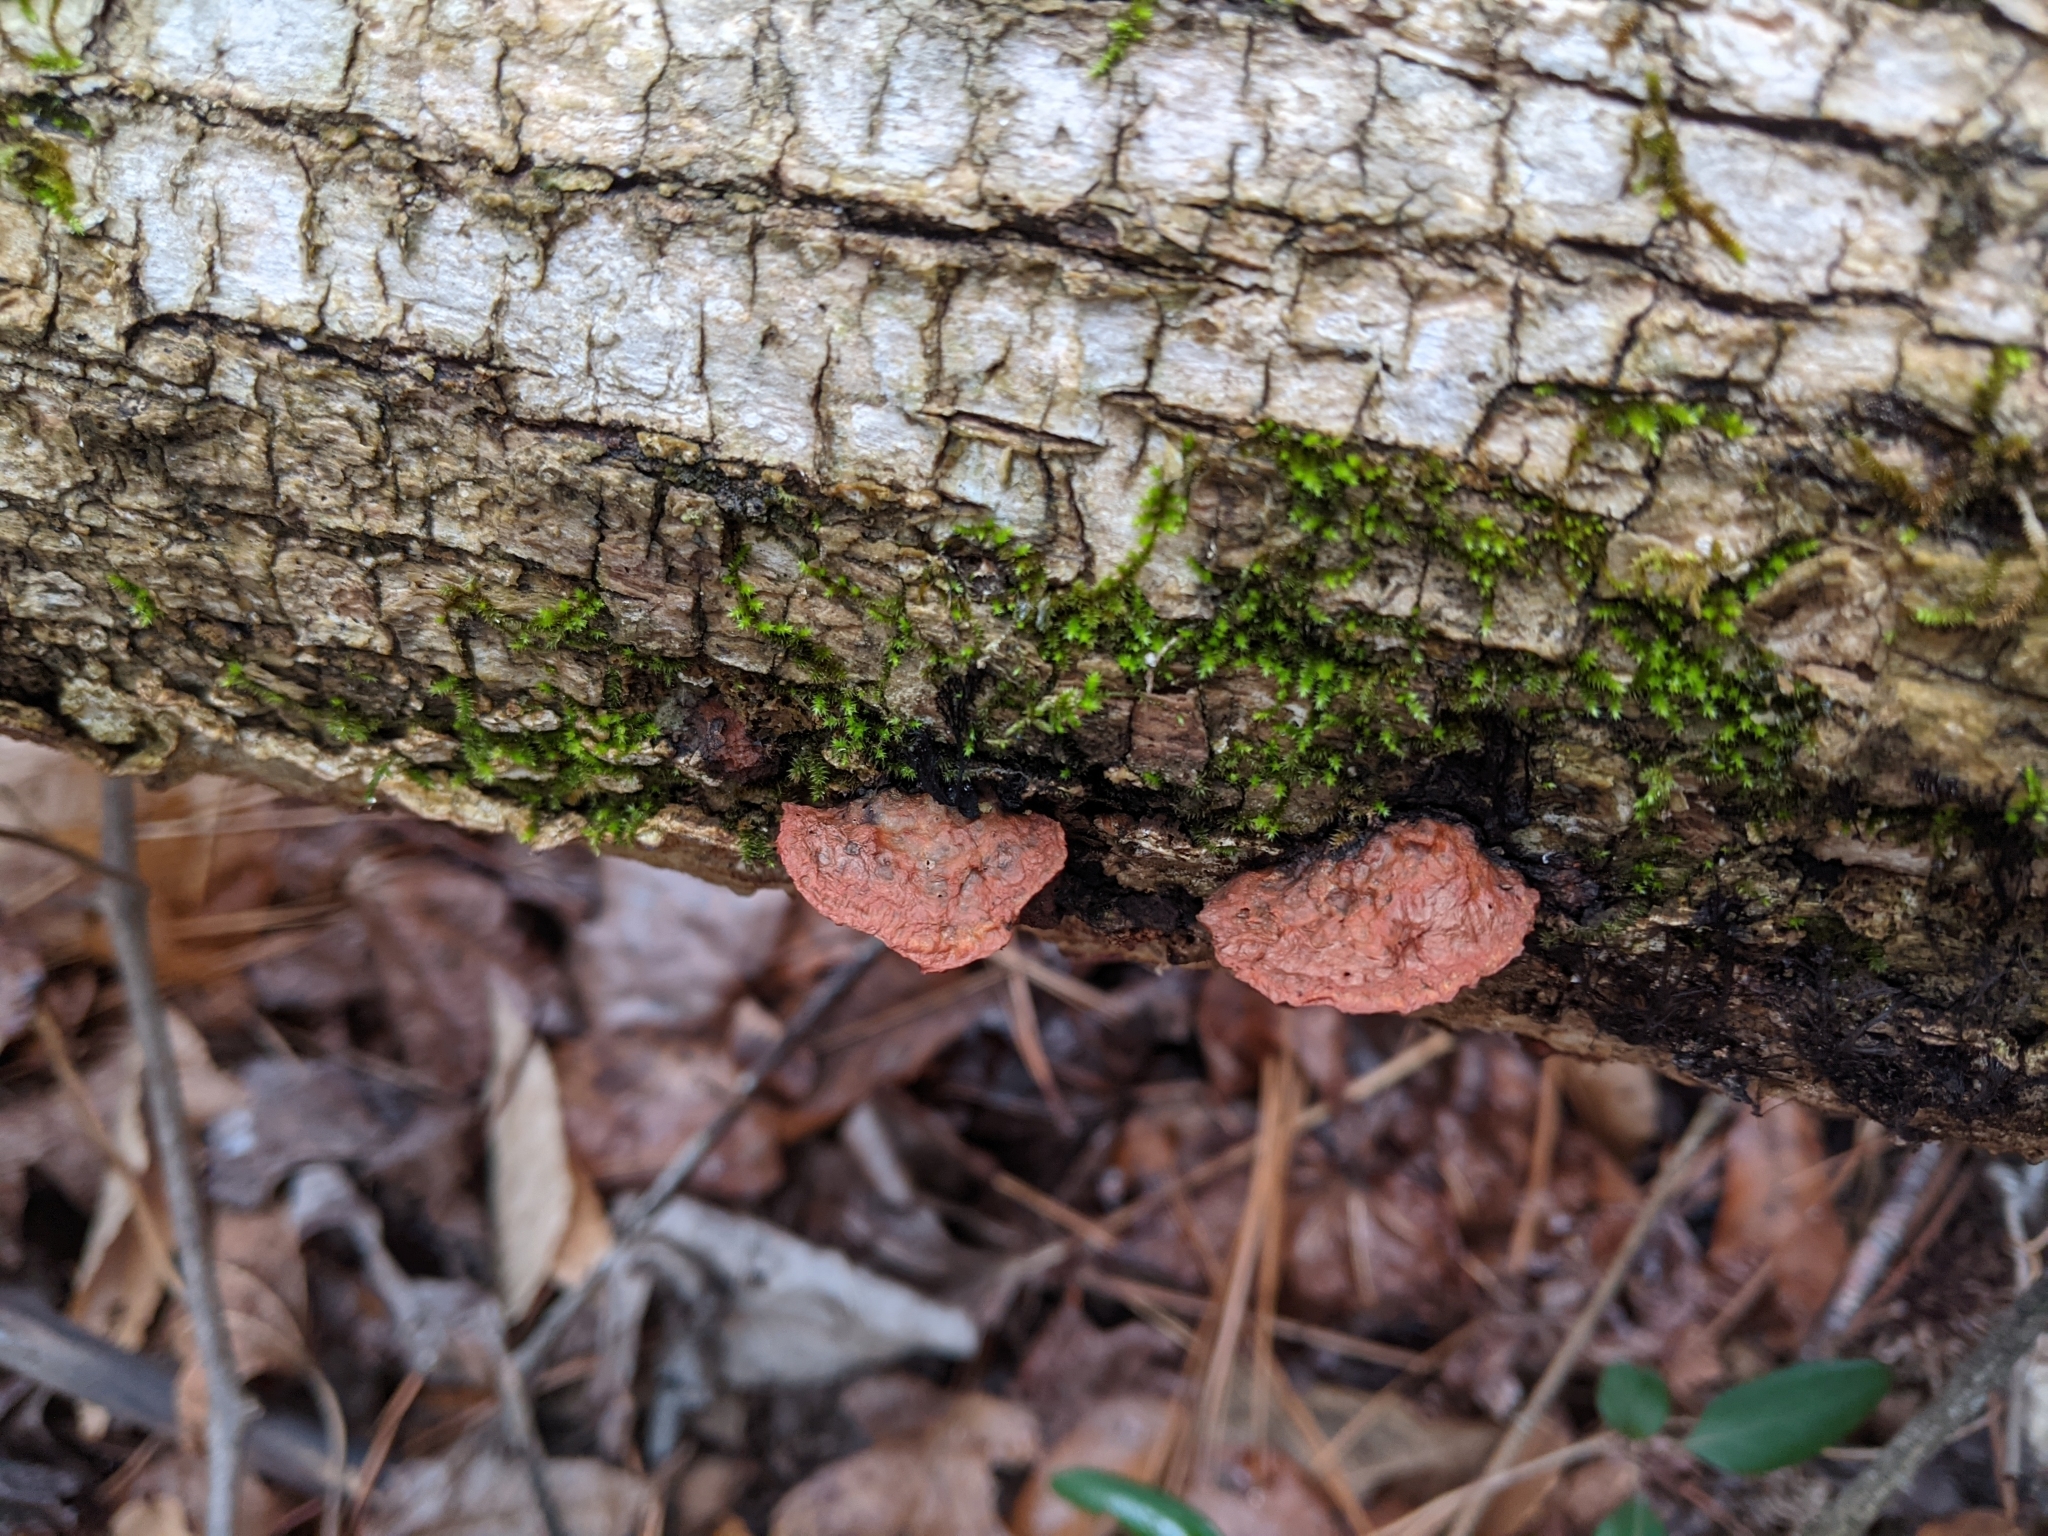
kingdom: Fungi
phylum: Basidiomycota
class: Agaricomycetes
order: Polyporales
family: Phanerochaetaceae
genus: Hapalopilus
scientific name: Hapalopilus rutilans
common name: Tender nesting polypore
